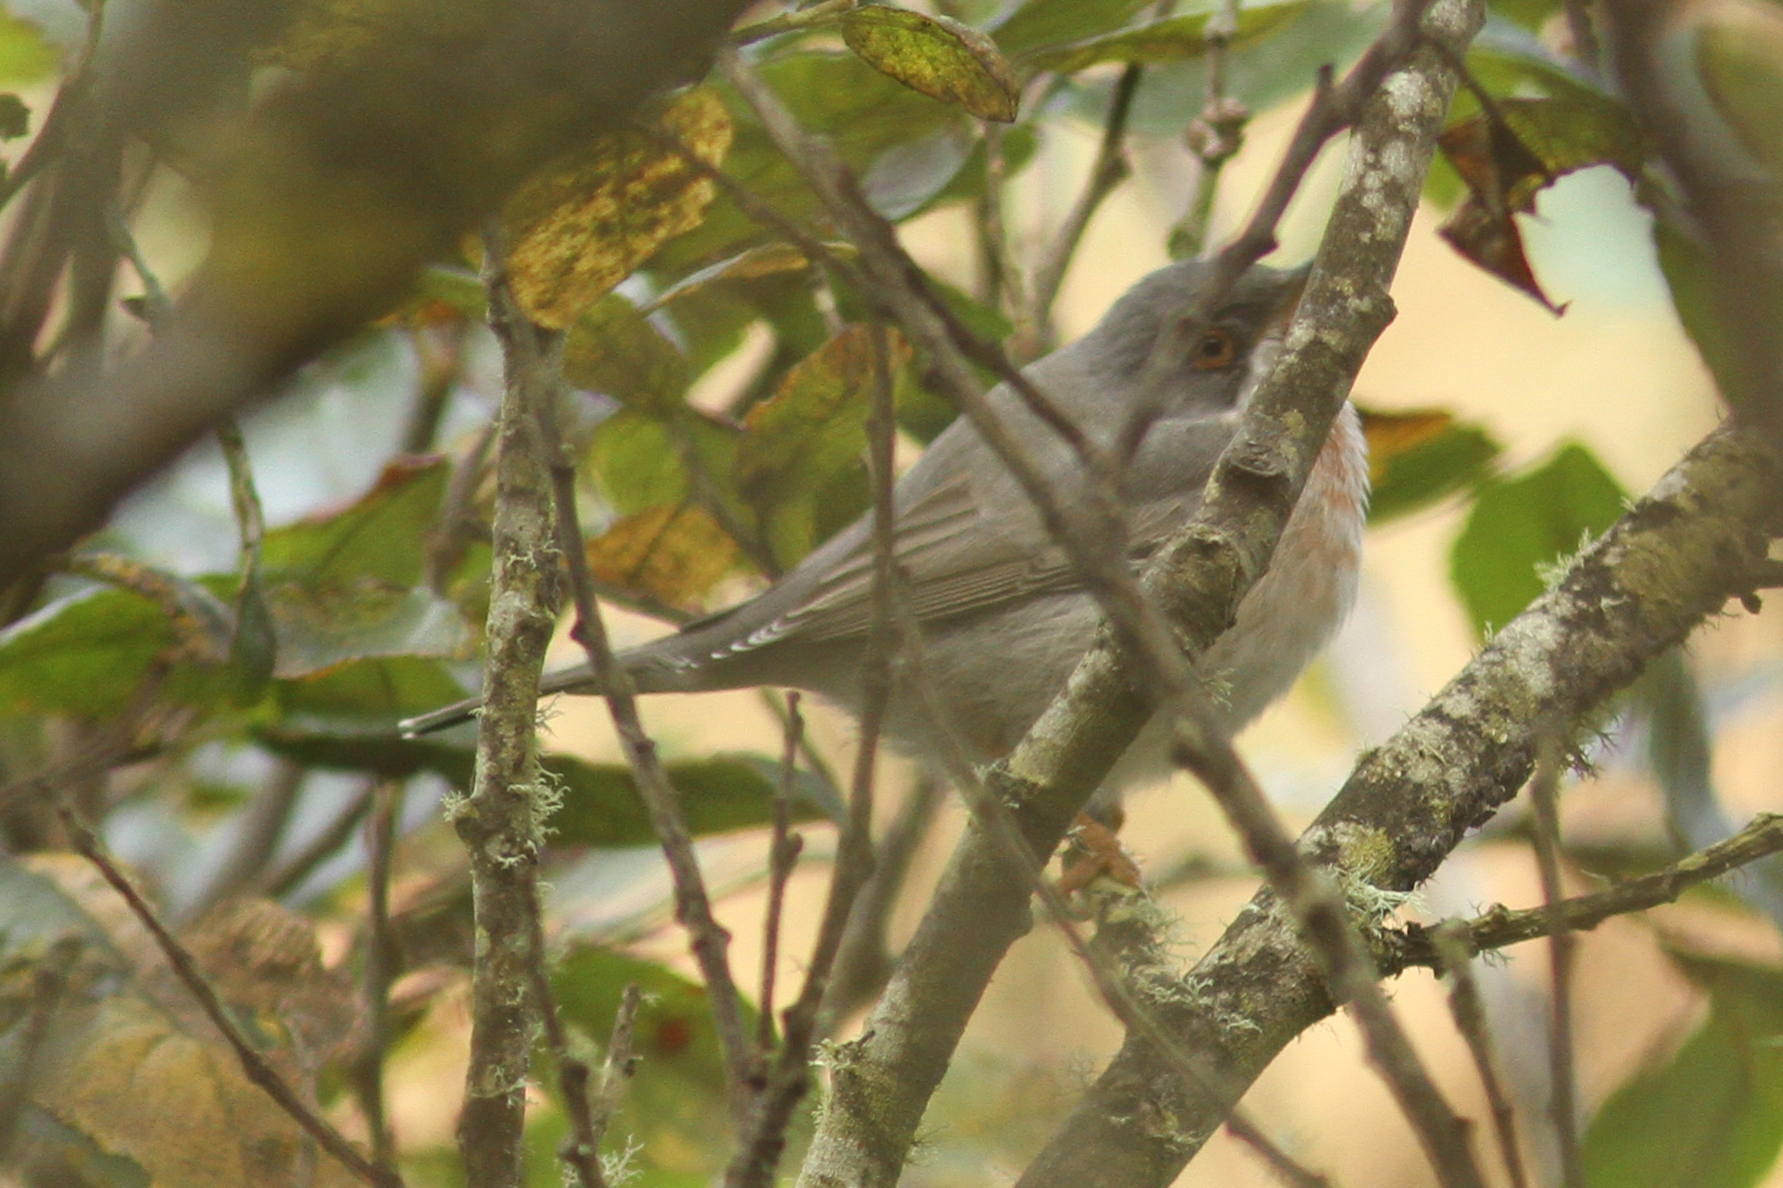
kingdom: Animalia
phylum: Chordata
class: Aves
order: Passeriformes
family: Sylviidae
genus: Curruca
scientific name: Curruca cantillans
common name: Subalpine warbler
